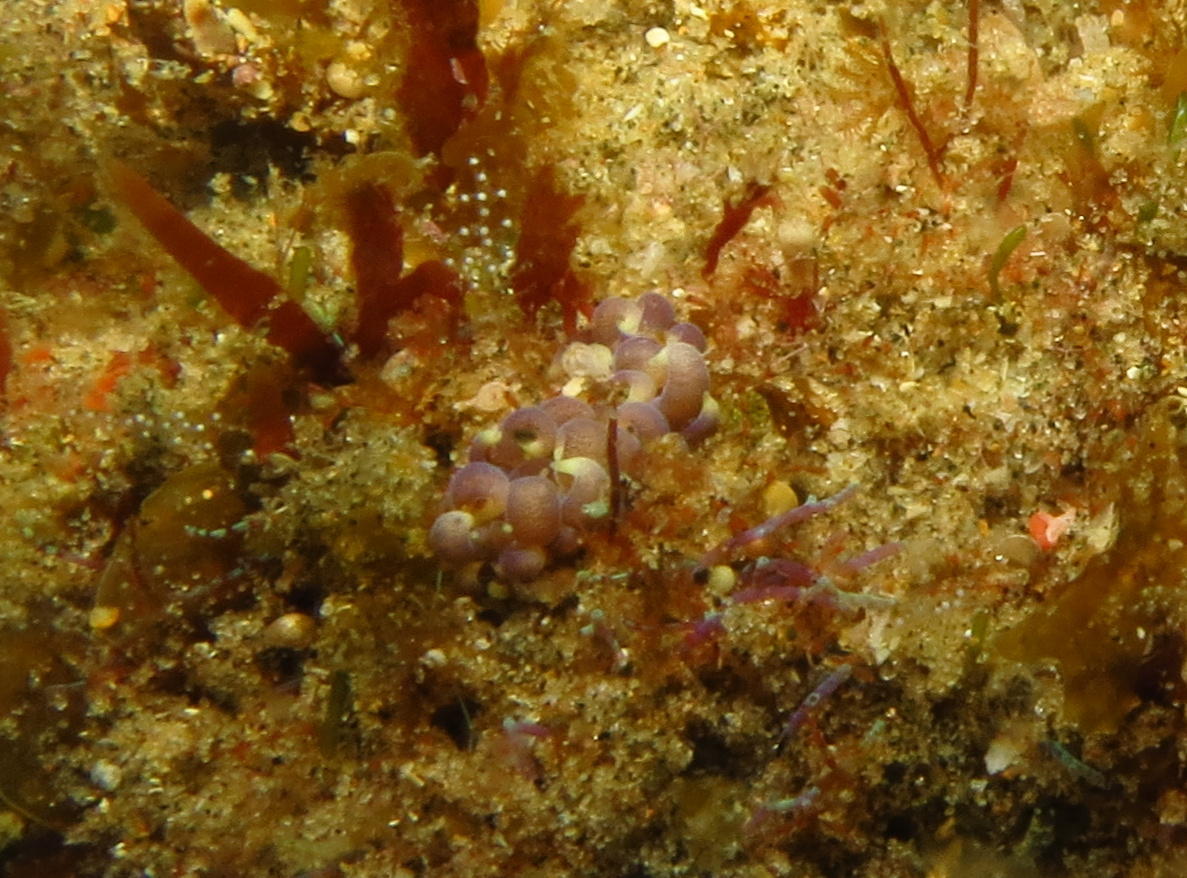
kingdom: Animalia
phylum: Mollusca
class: Gastropoda
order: Nudibranchia
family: Myrrhinidae
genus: Phyllodesmium
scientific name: Phyllodesmium magnum
